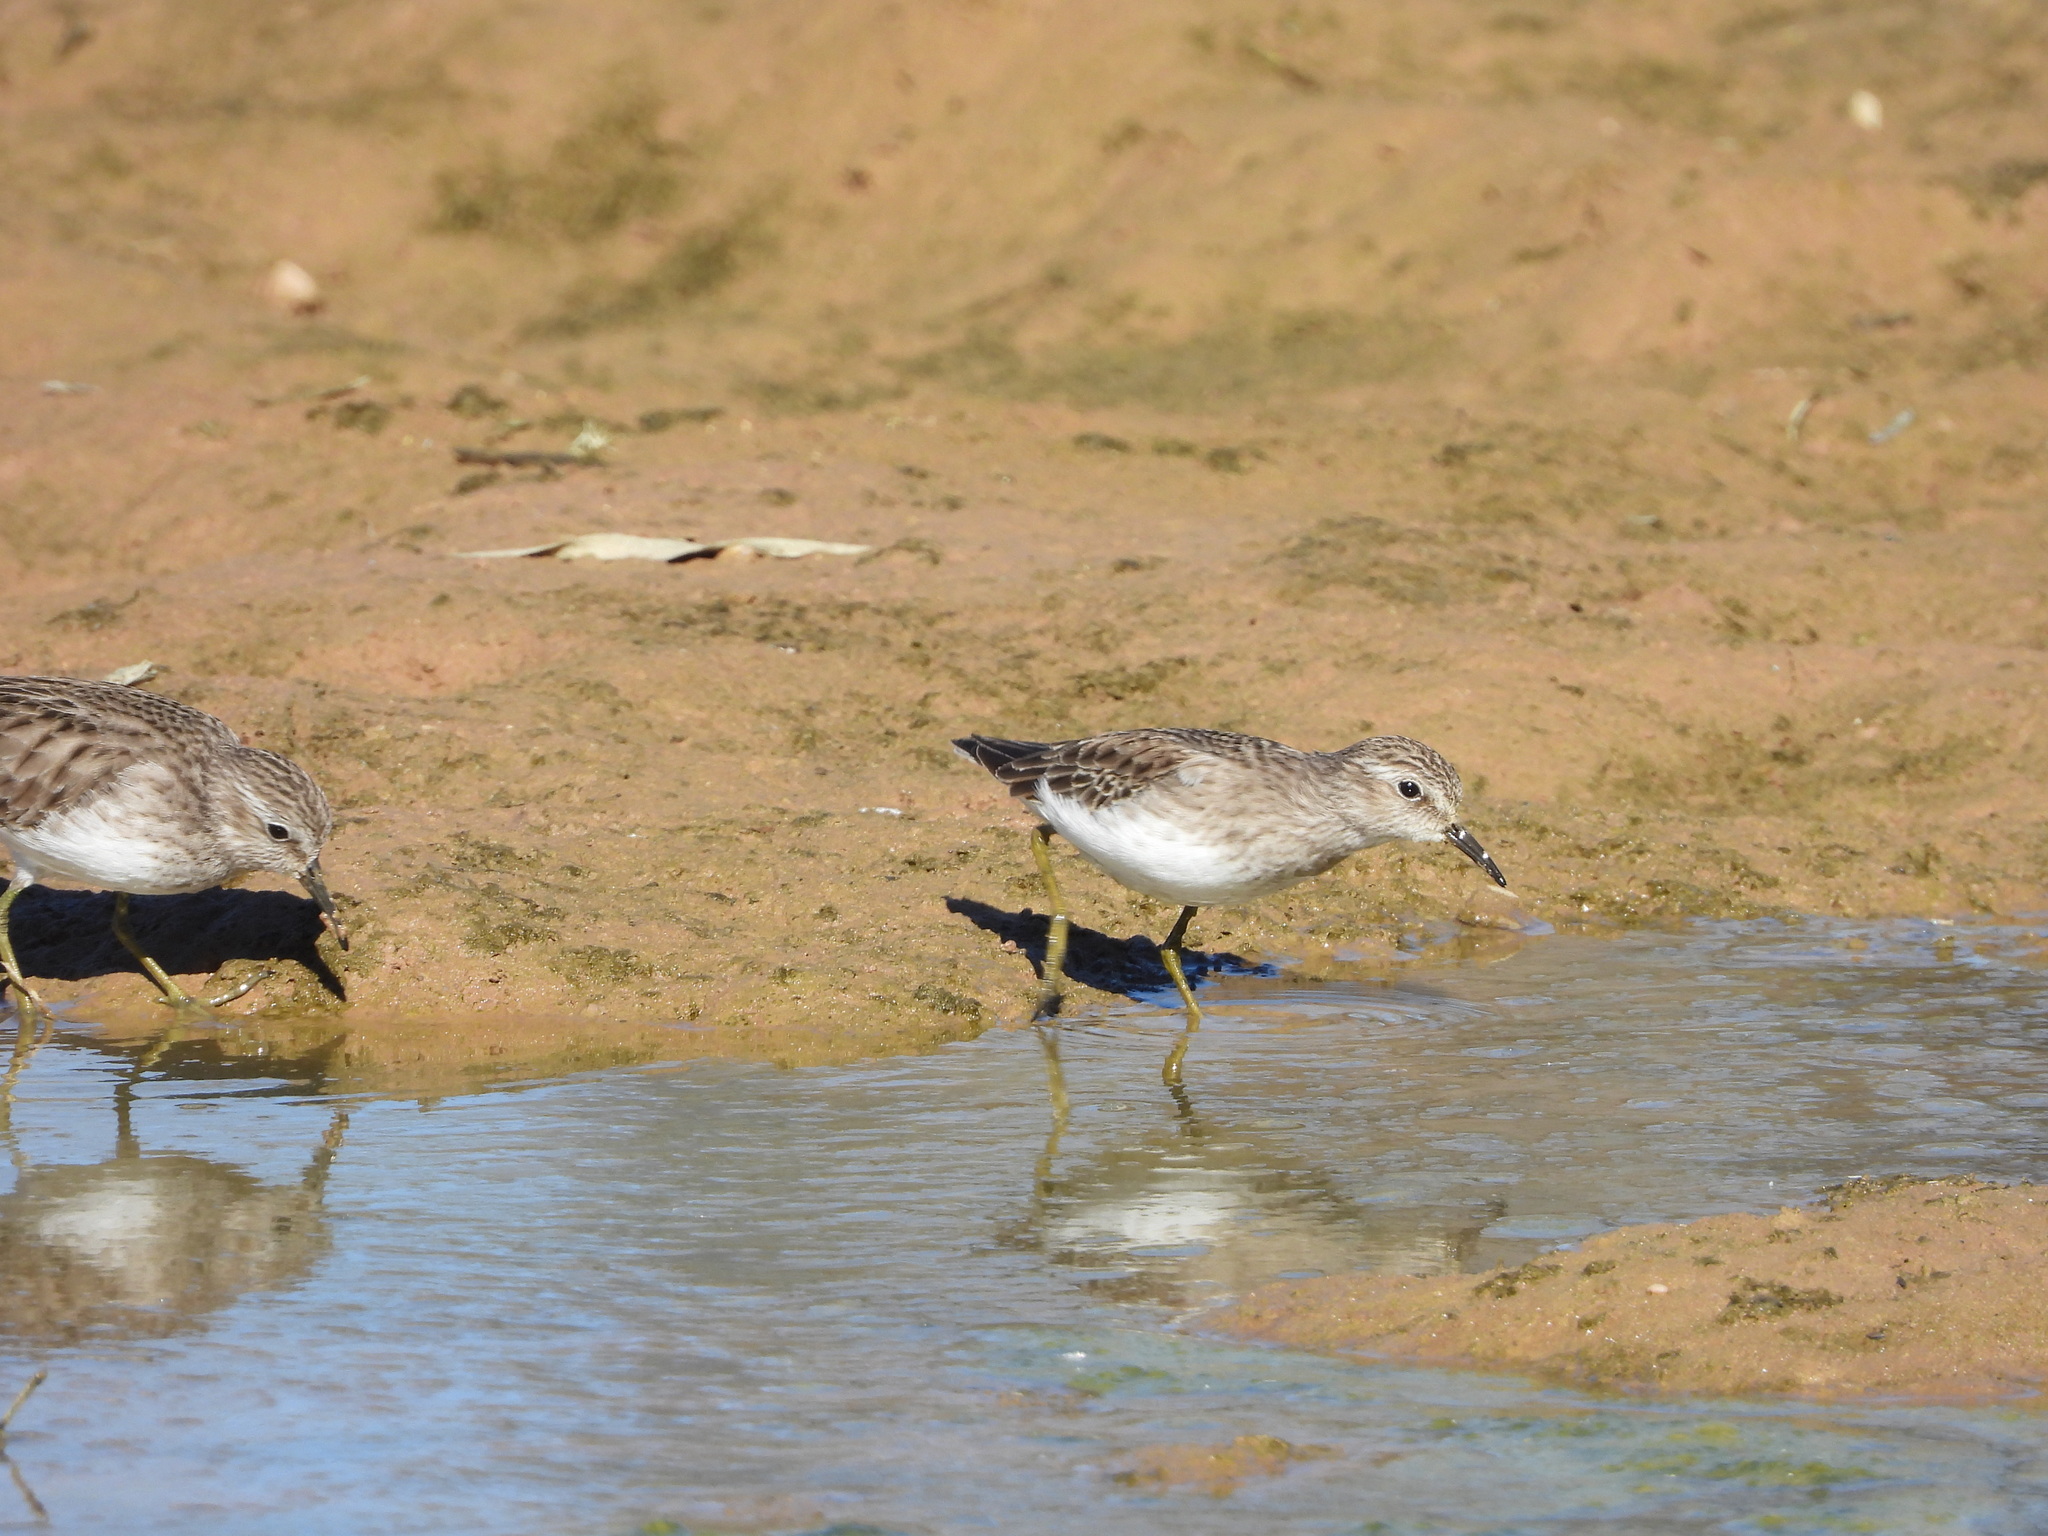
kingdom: Animalia
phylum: Chordata
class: Aves
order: Charadriiformes
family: Scolopacidae
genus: Calidris
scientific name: Calidris minutilla
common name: Least sandpiper
